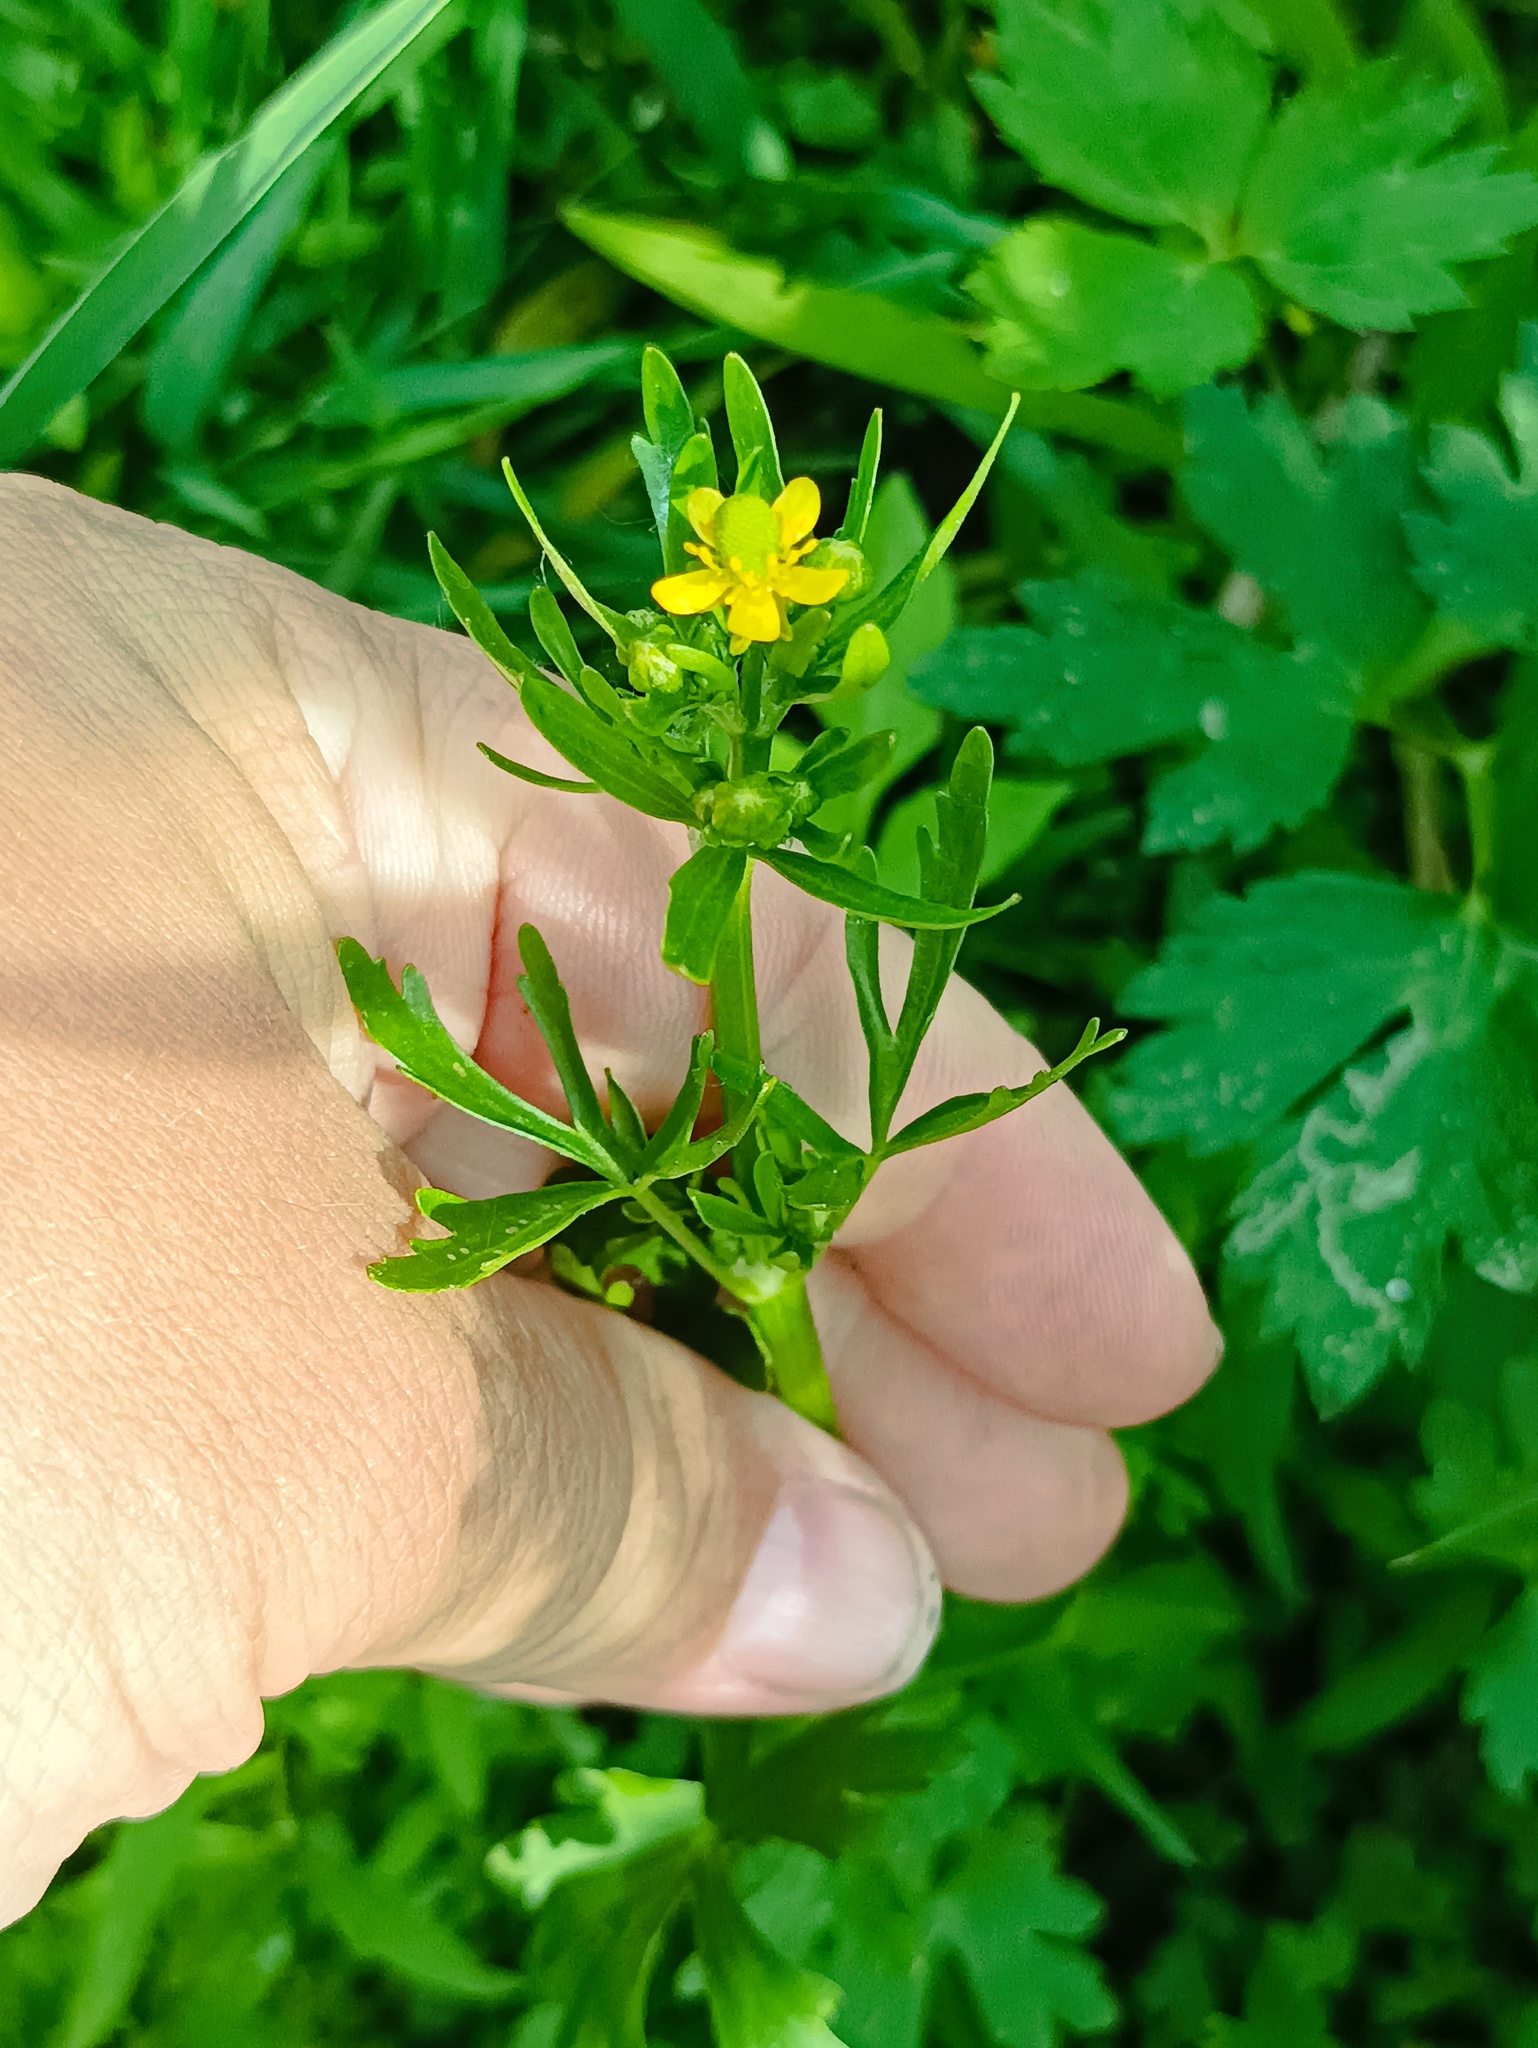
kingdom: Plantae
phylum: Tracheophyta
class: Magnoliopsida
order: Ranunculales
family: Ranunculaceae
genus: Ranunculus
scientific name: Ranunculus sceleratus
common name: Celery-leaved buttercup
